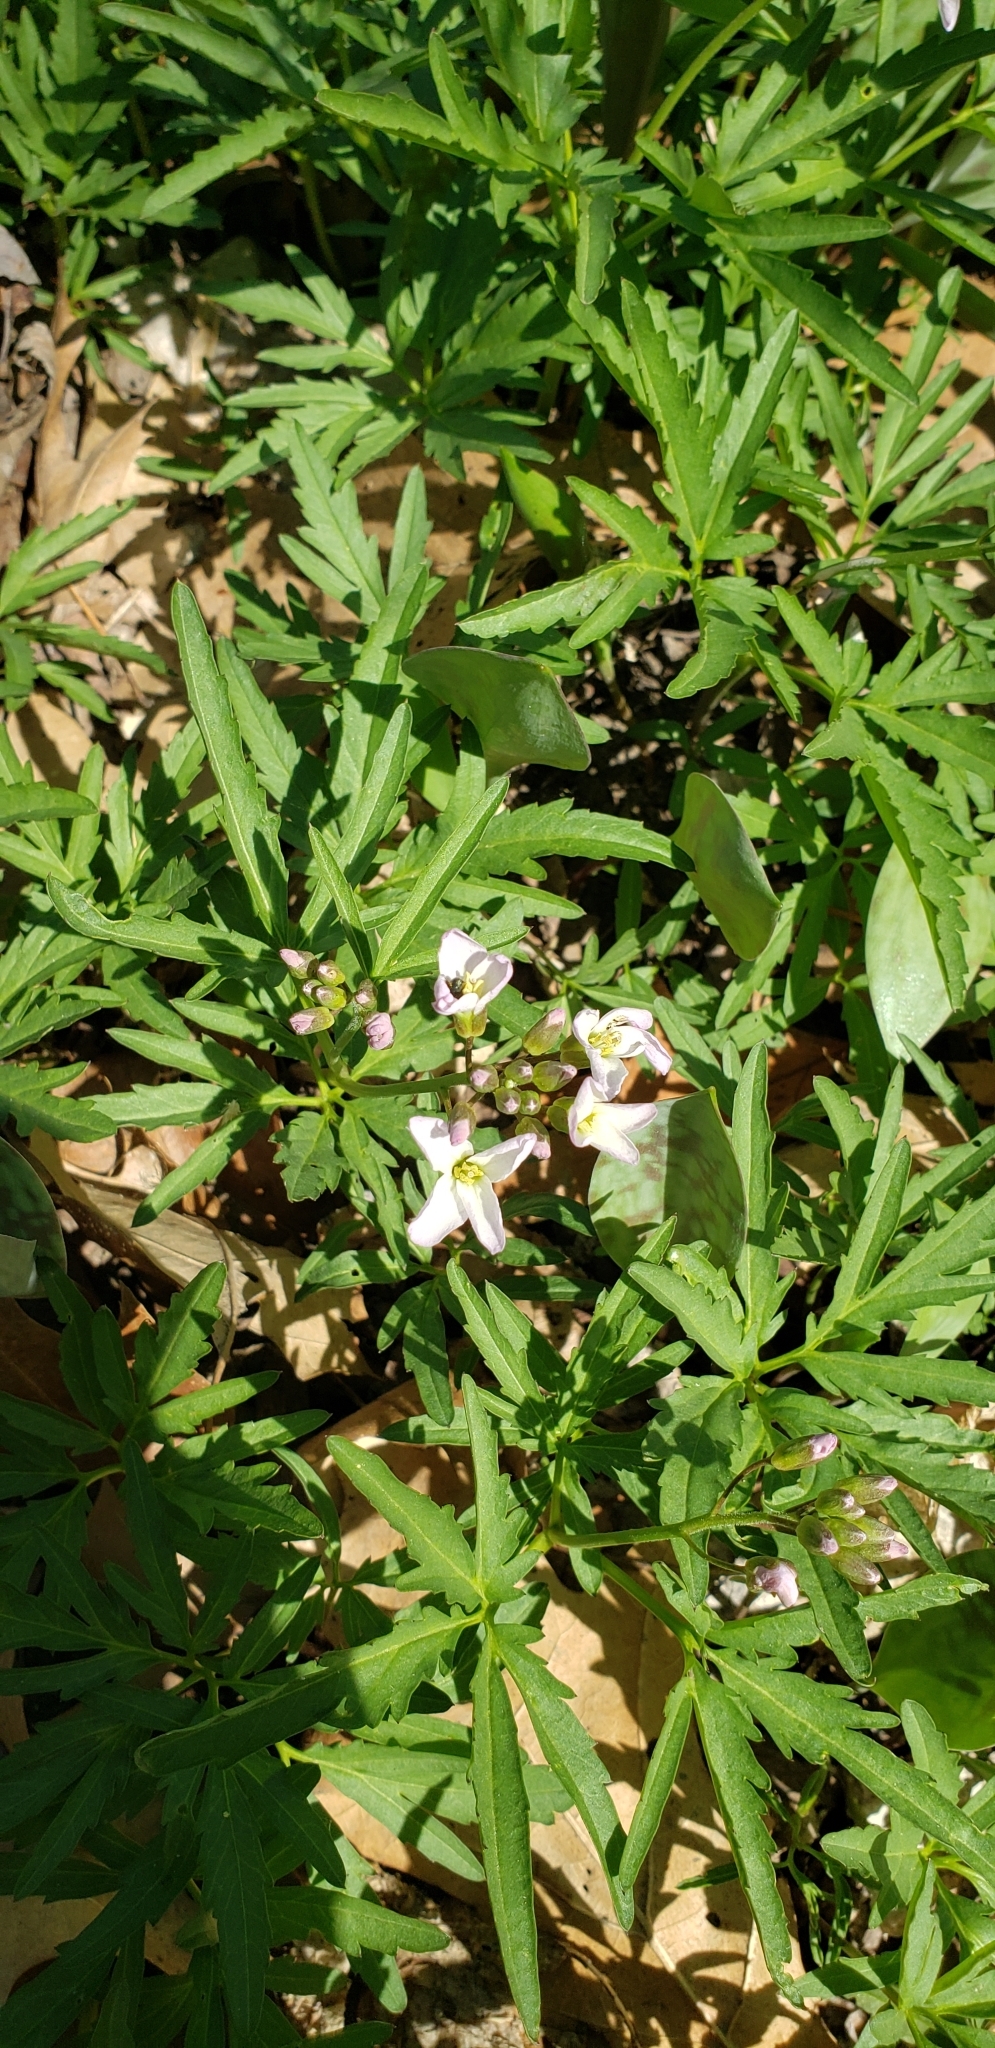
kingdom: Plantae
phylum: Tracheophyta
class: Magnoliopsida
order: Brassicales
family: Brassicaceae
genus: Cardamine
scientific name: Cardamine concatenata
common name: Cut-leaf toothcup
